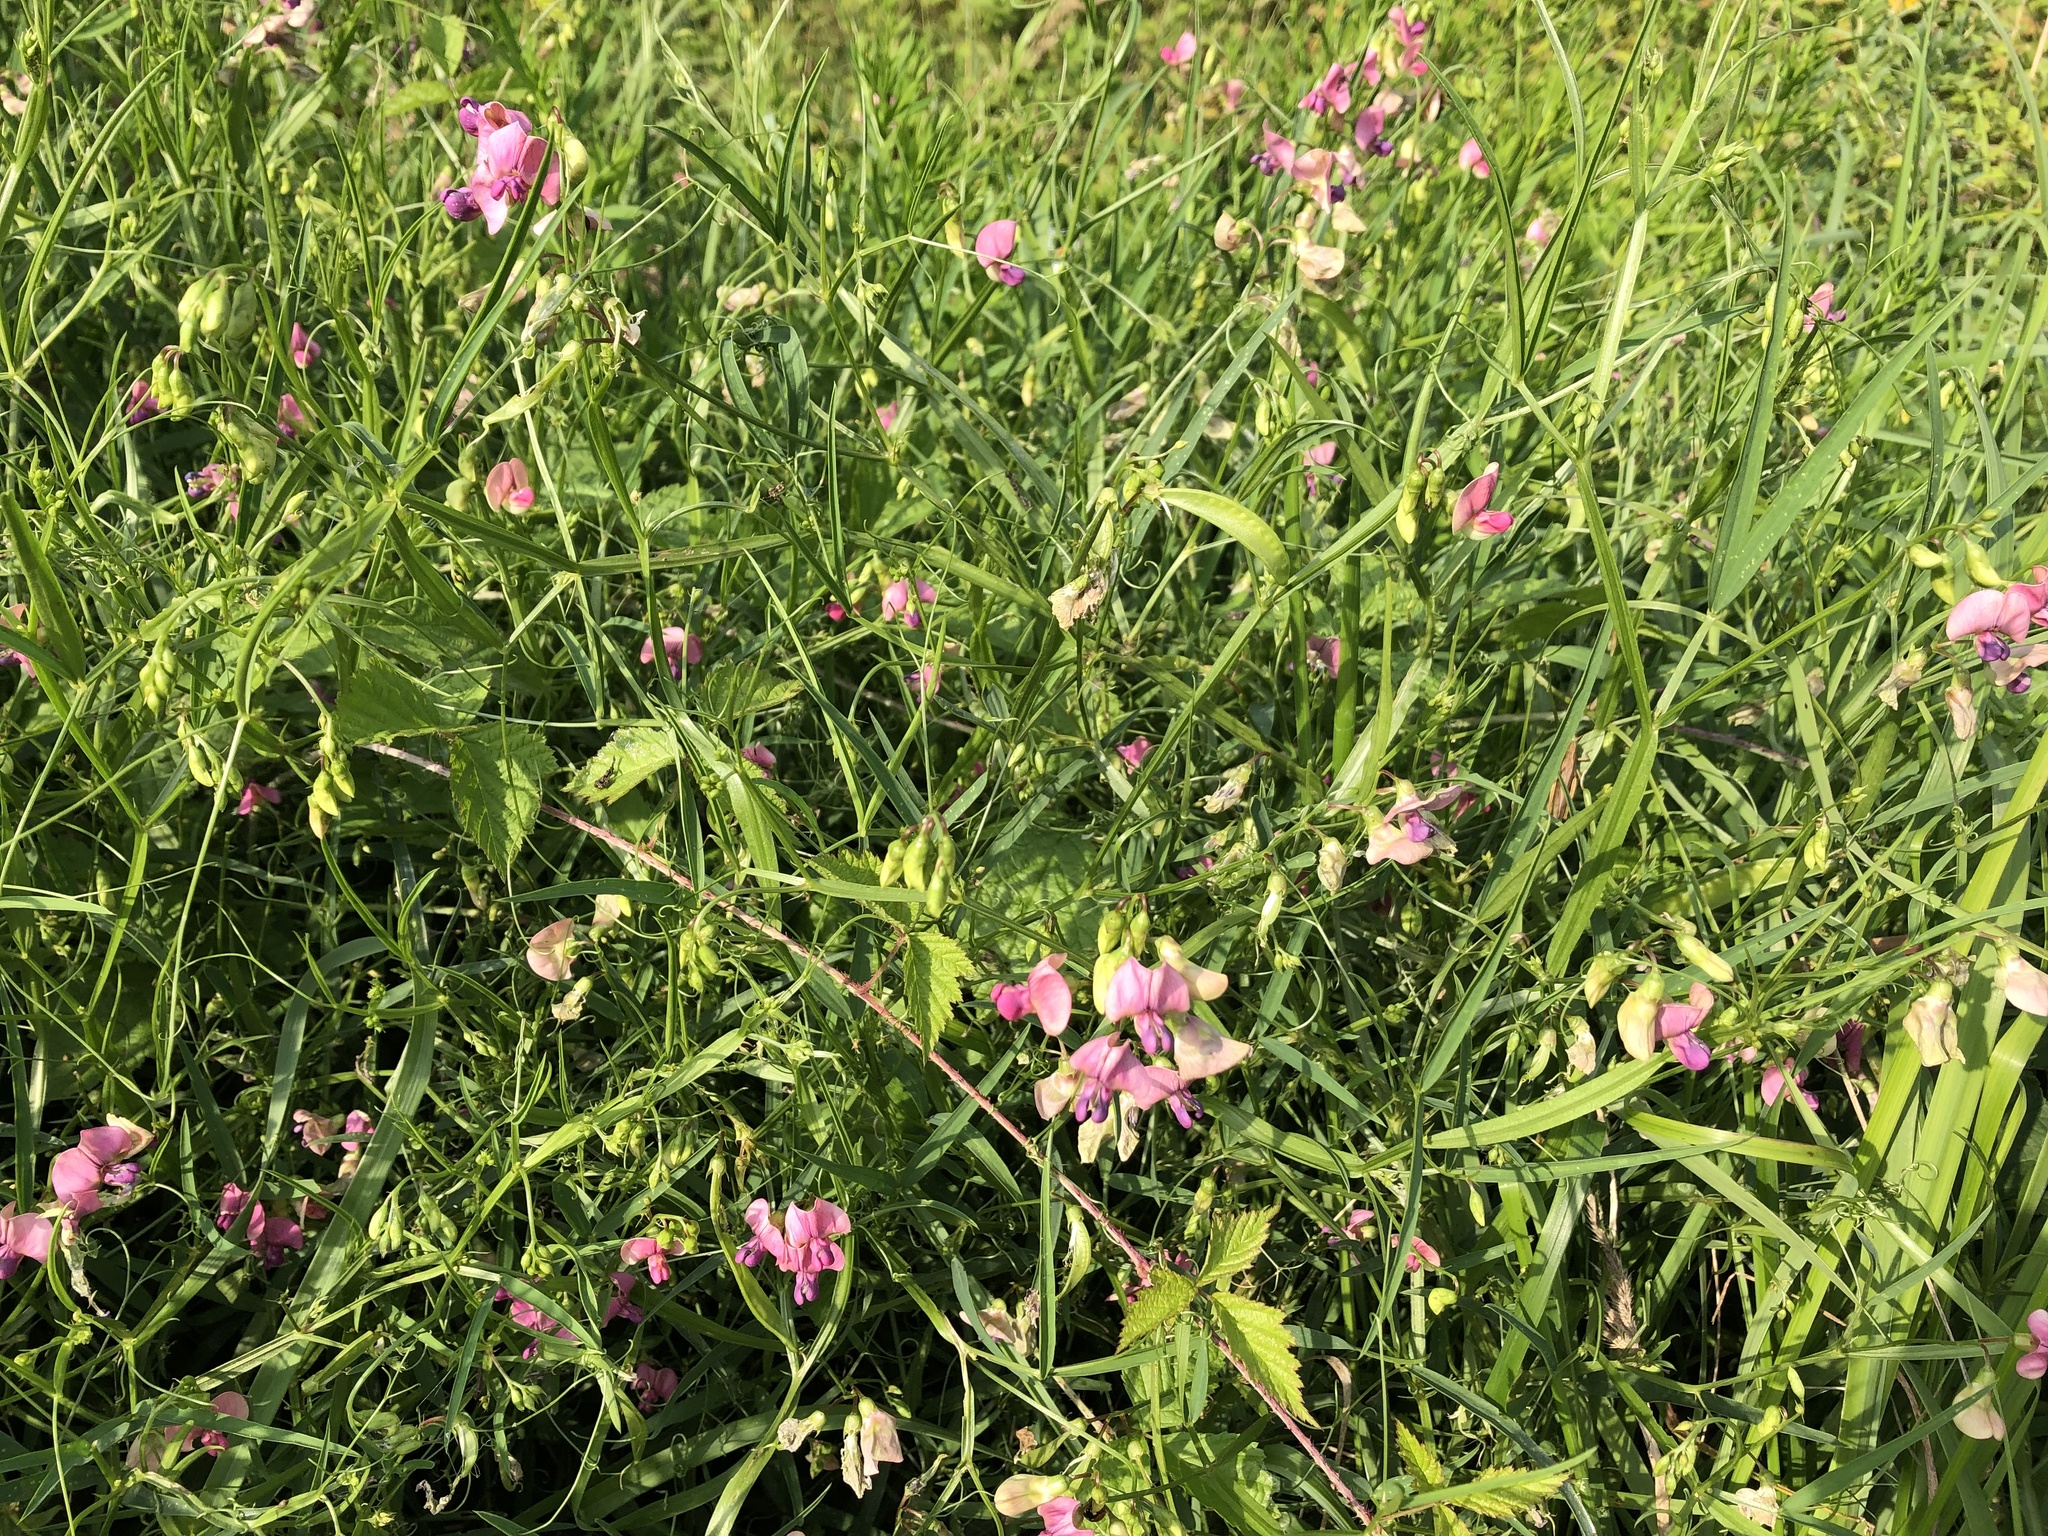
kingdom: Plantae
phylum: Tracheophyta
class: Magnoliopsida
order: Fabales
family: Fabaceae
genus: Lathyrus
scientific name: Lathyrus sylvestris
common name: Flat pea
